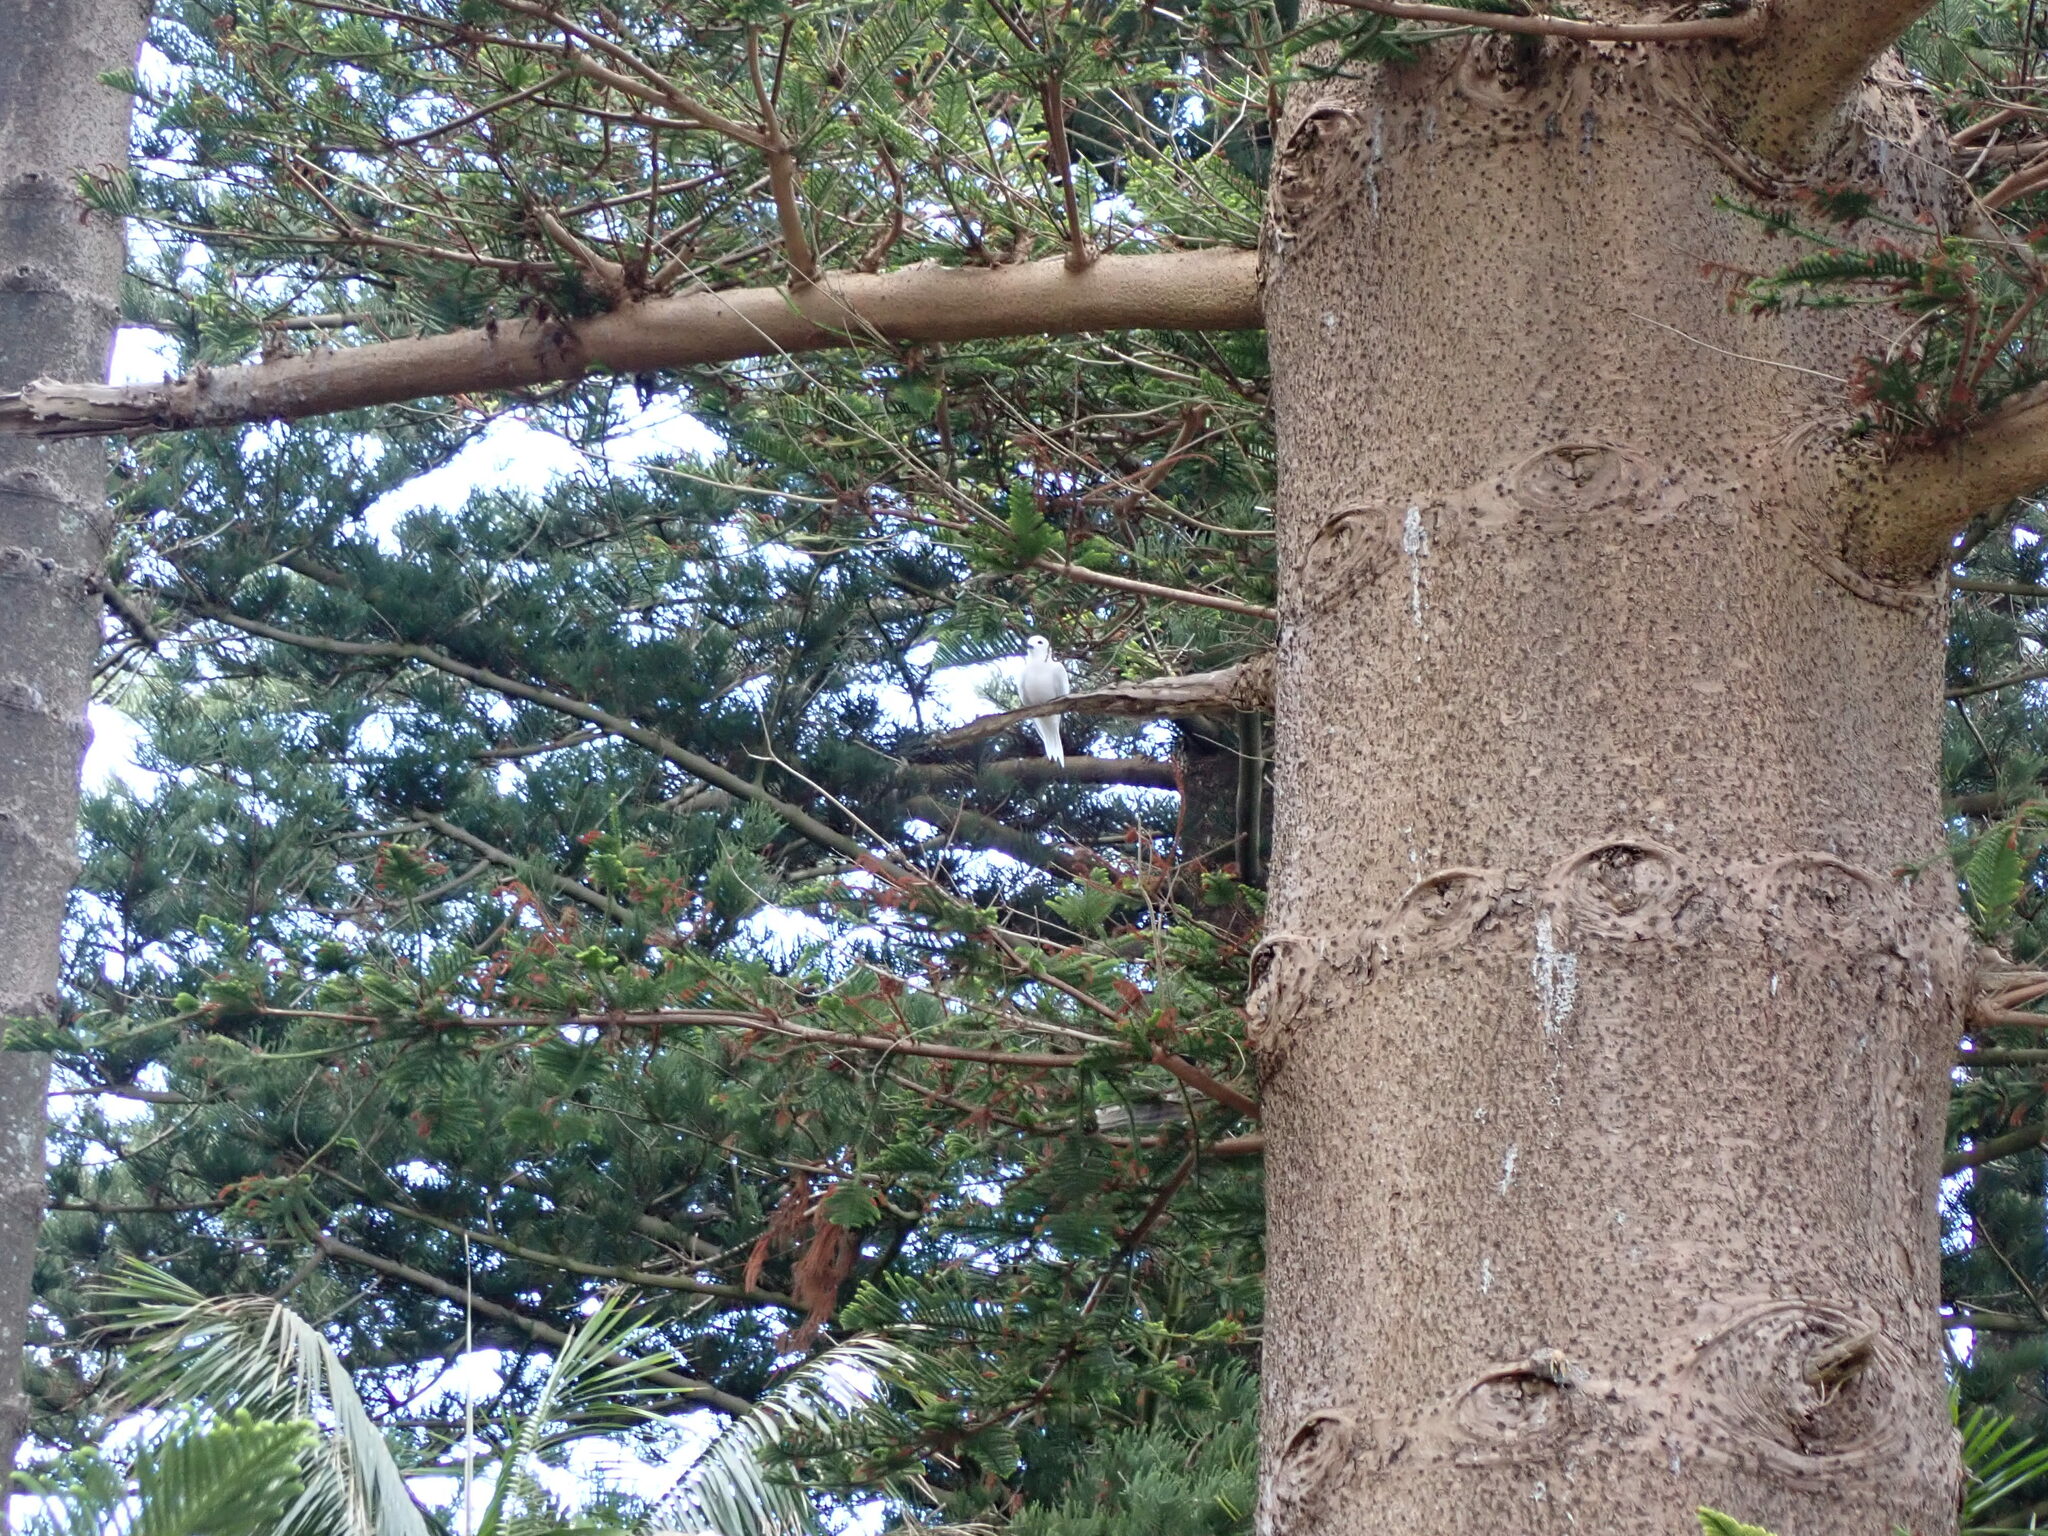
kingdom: Animalia
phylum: Chordata
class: Aves
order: Charadriiformes
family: Laridae
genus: Gygis
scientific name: Gygis alba
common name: White tern
